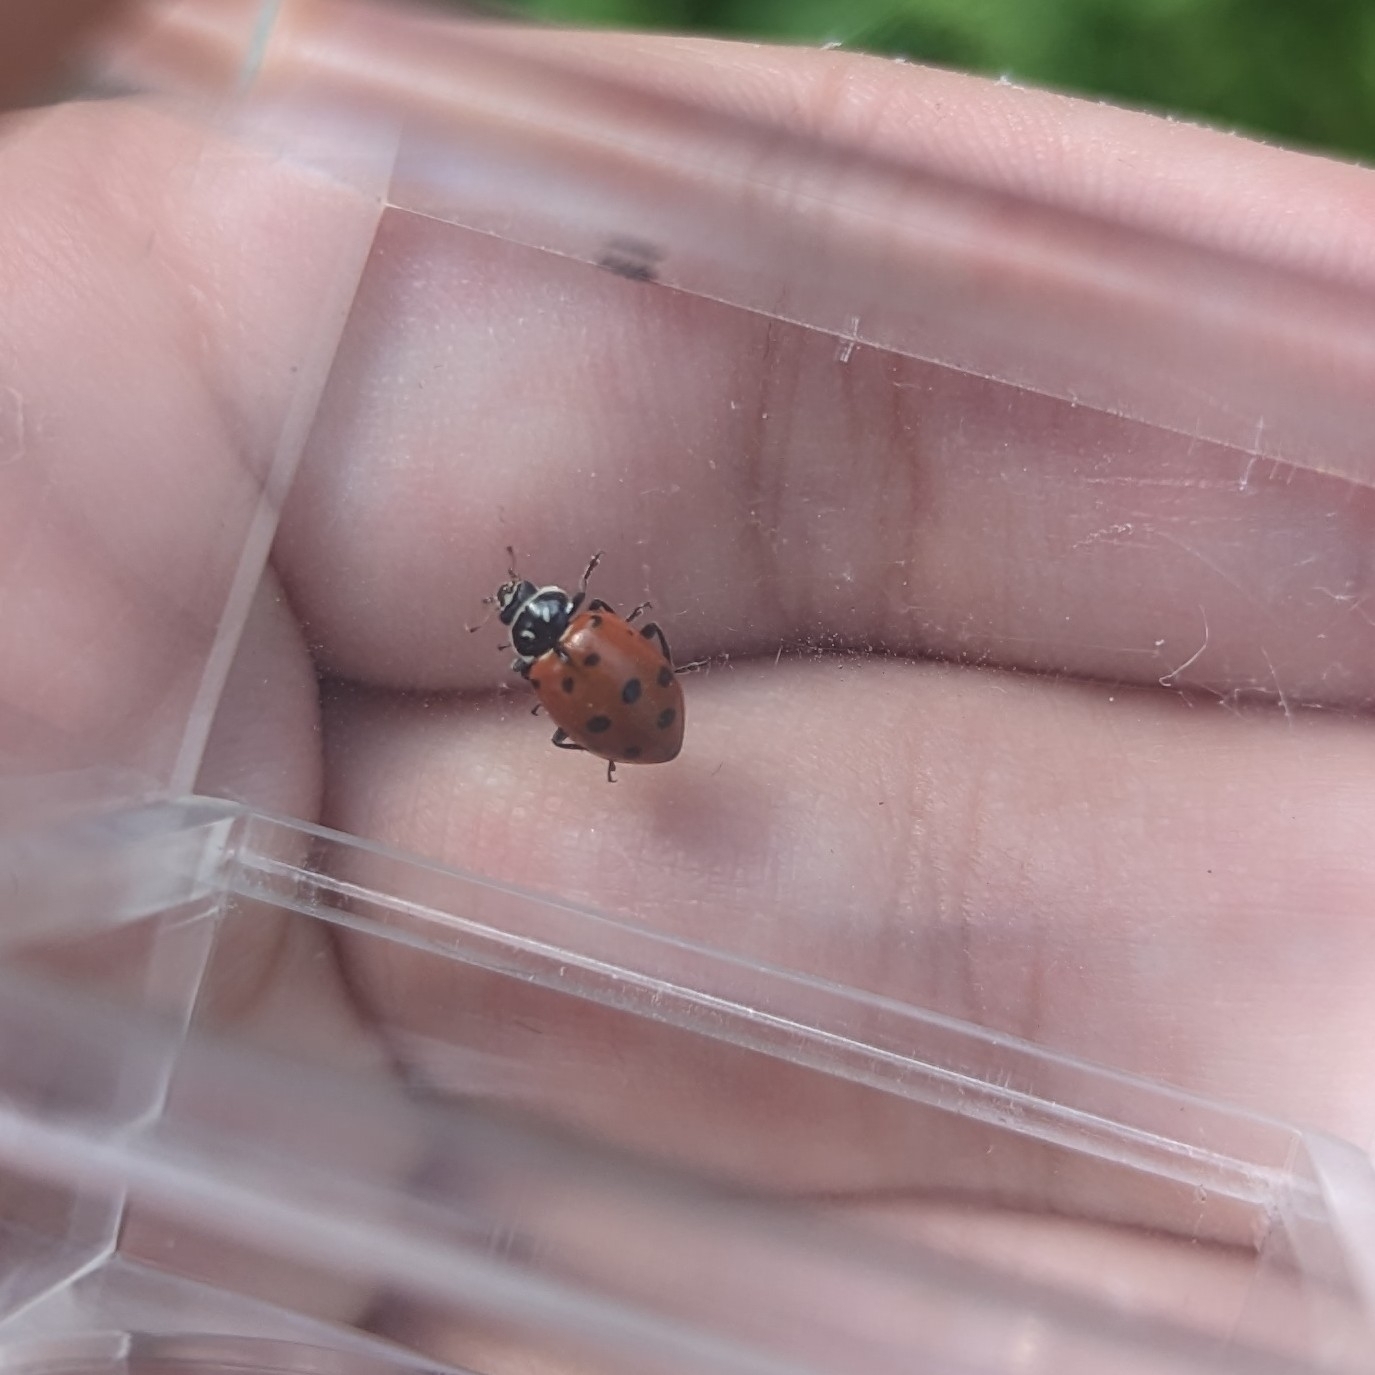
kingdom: Animalia
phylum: Arthropoda
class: Insecta
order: Coleoptera
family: Coccinellidae
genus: Hippodamia
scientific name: Hippodamia convergens
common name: Convergent lady beetle
